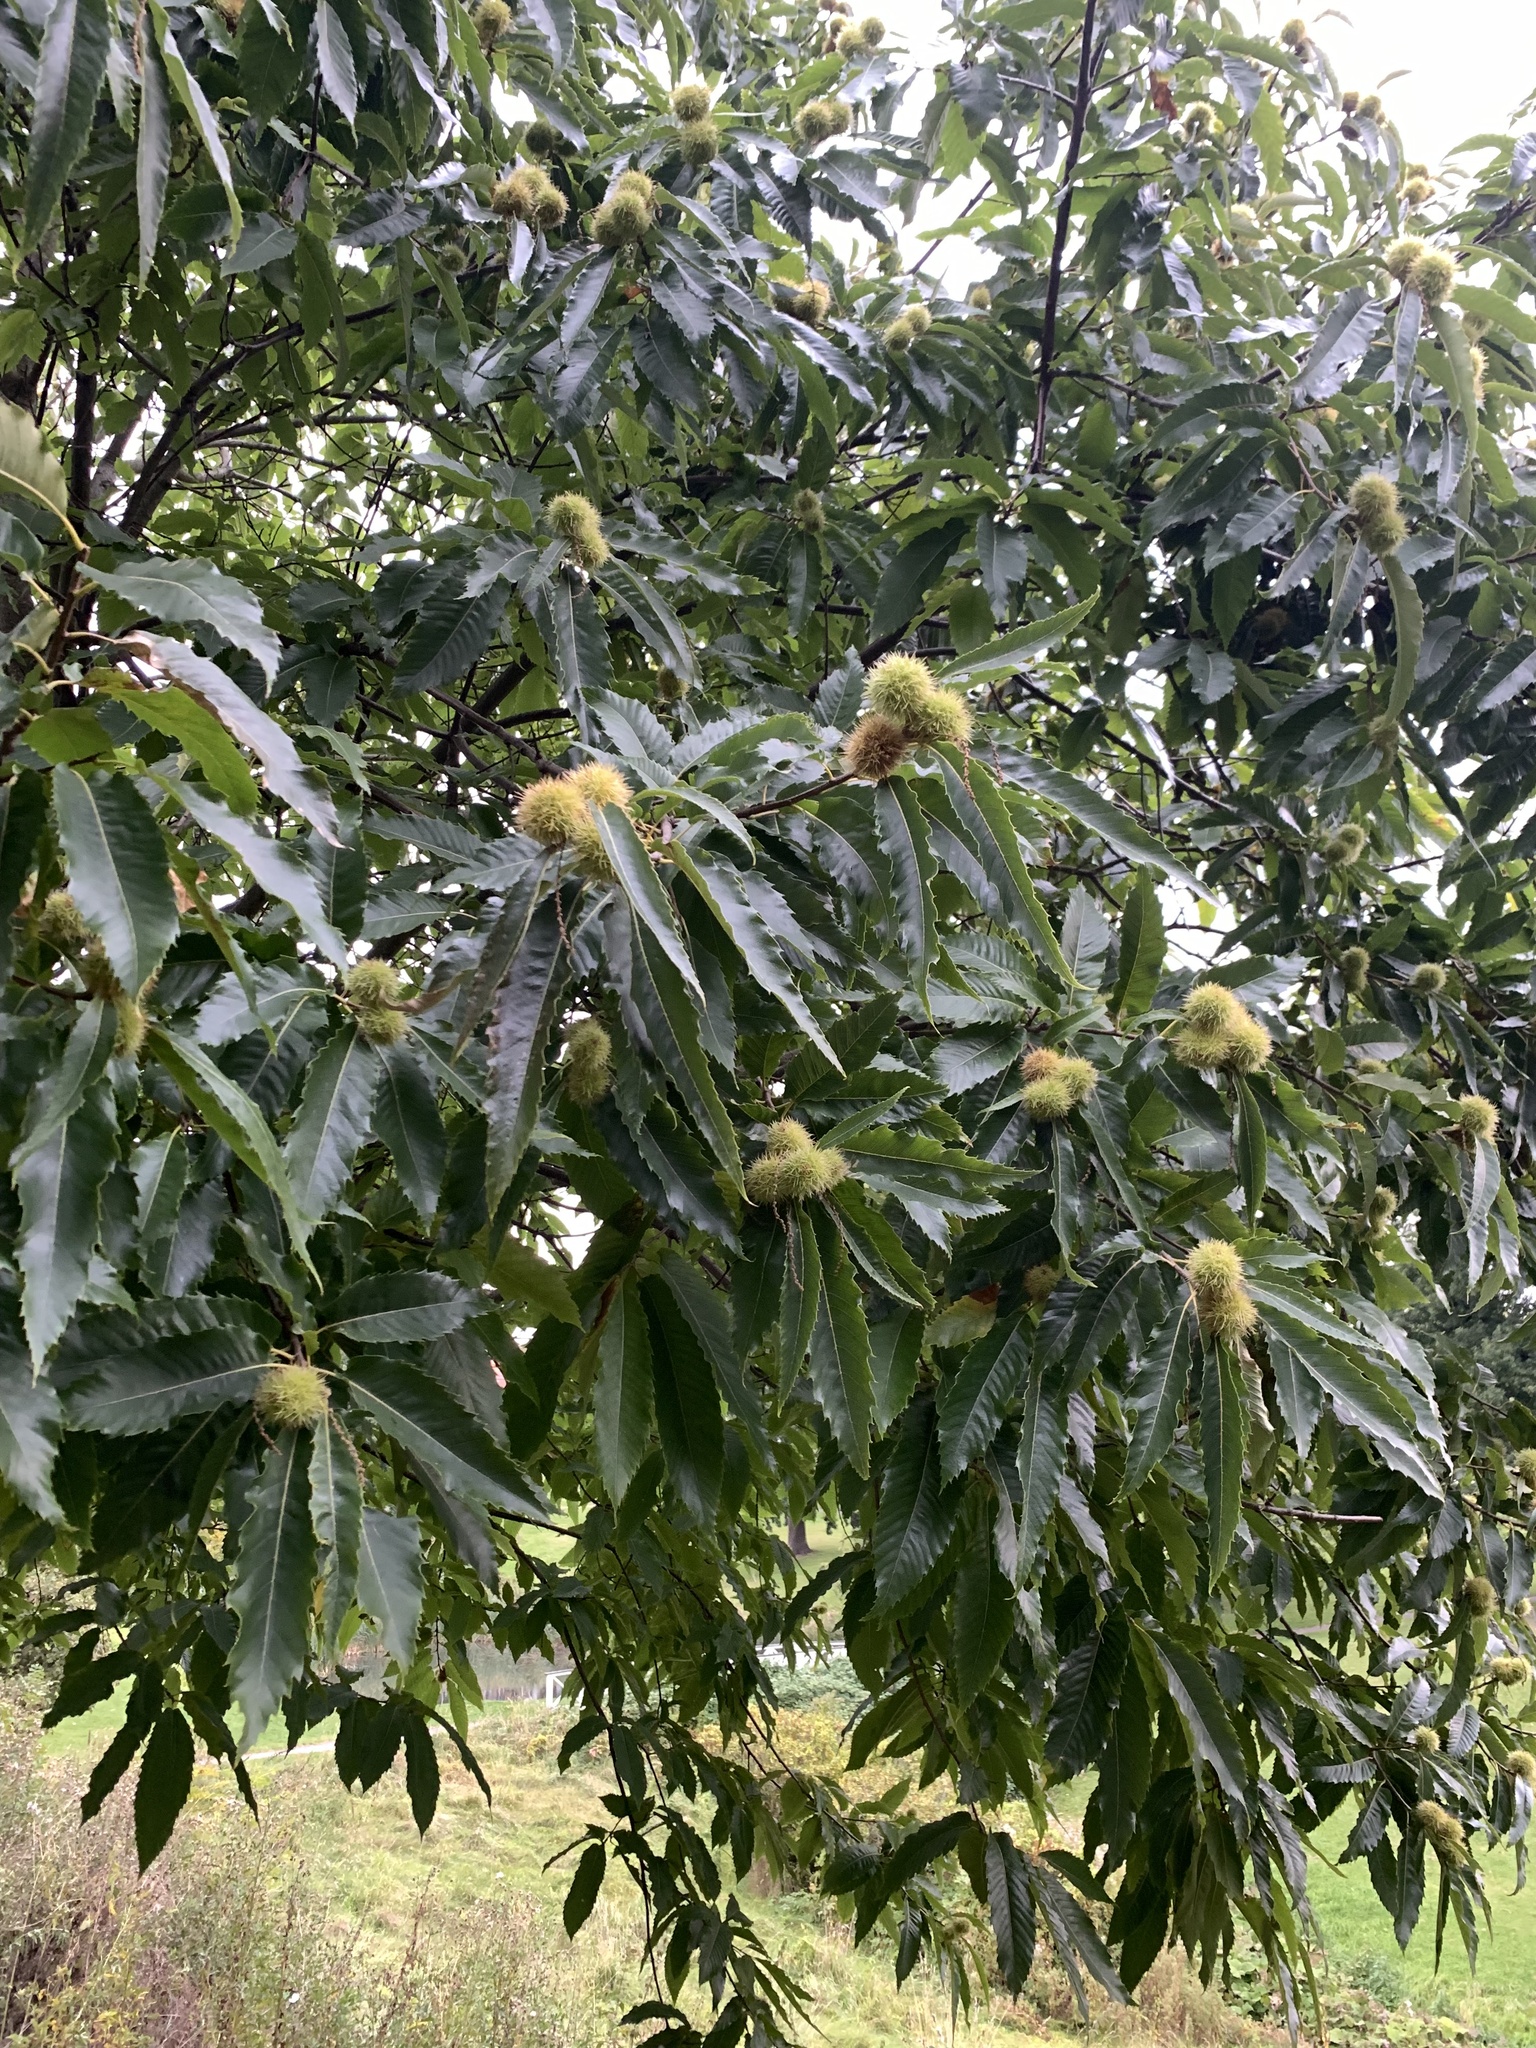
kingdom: Plantae
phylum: Tracheophyta
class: Magnoliopsida
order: Fagales
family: Fagaceae
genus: Castanea
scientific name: Castanea sativa
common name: Sweet chestnut
